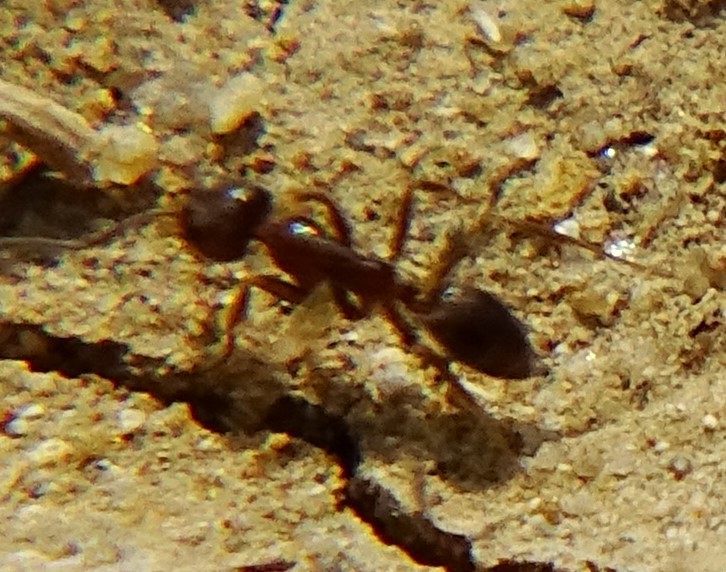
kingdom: Animalia
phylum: Arthropoda
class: Insecta
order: Hymenoptera
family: Formicidae
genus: Linepithema
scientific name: Linepithema humile
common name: Argentine ant
